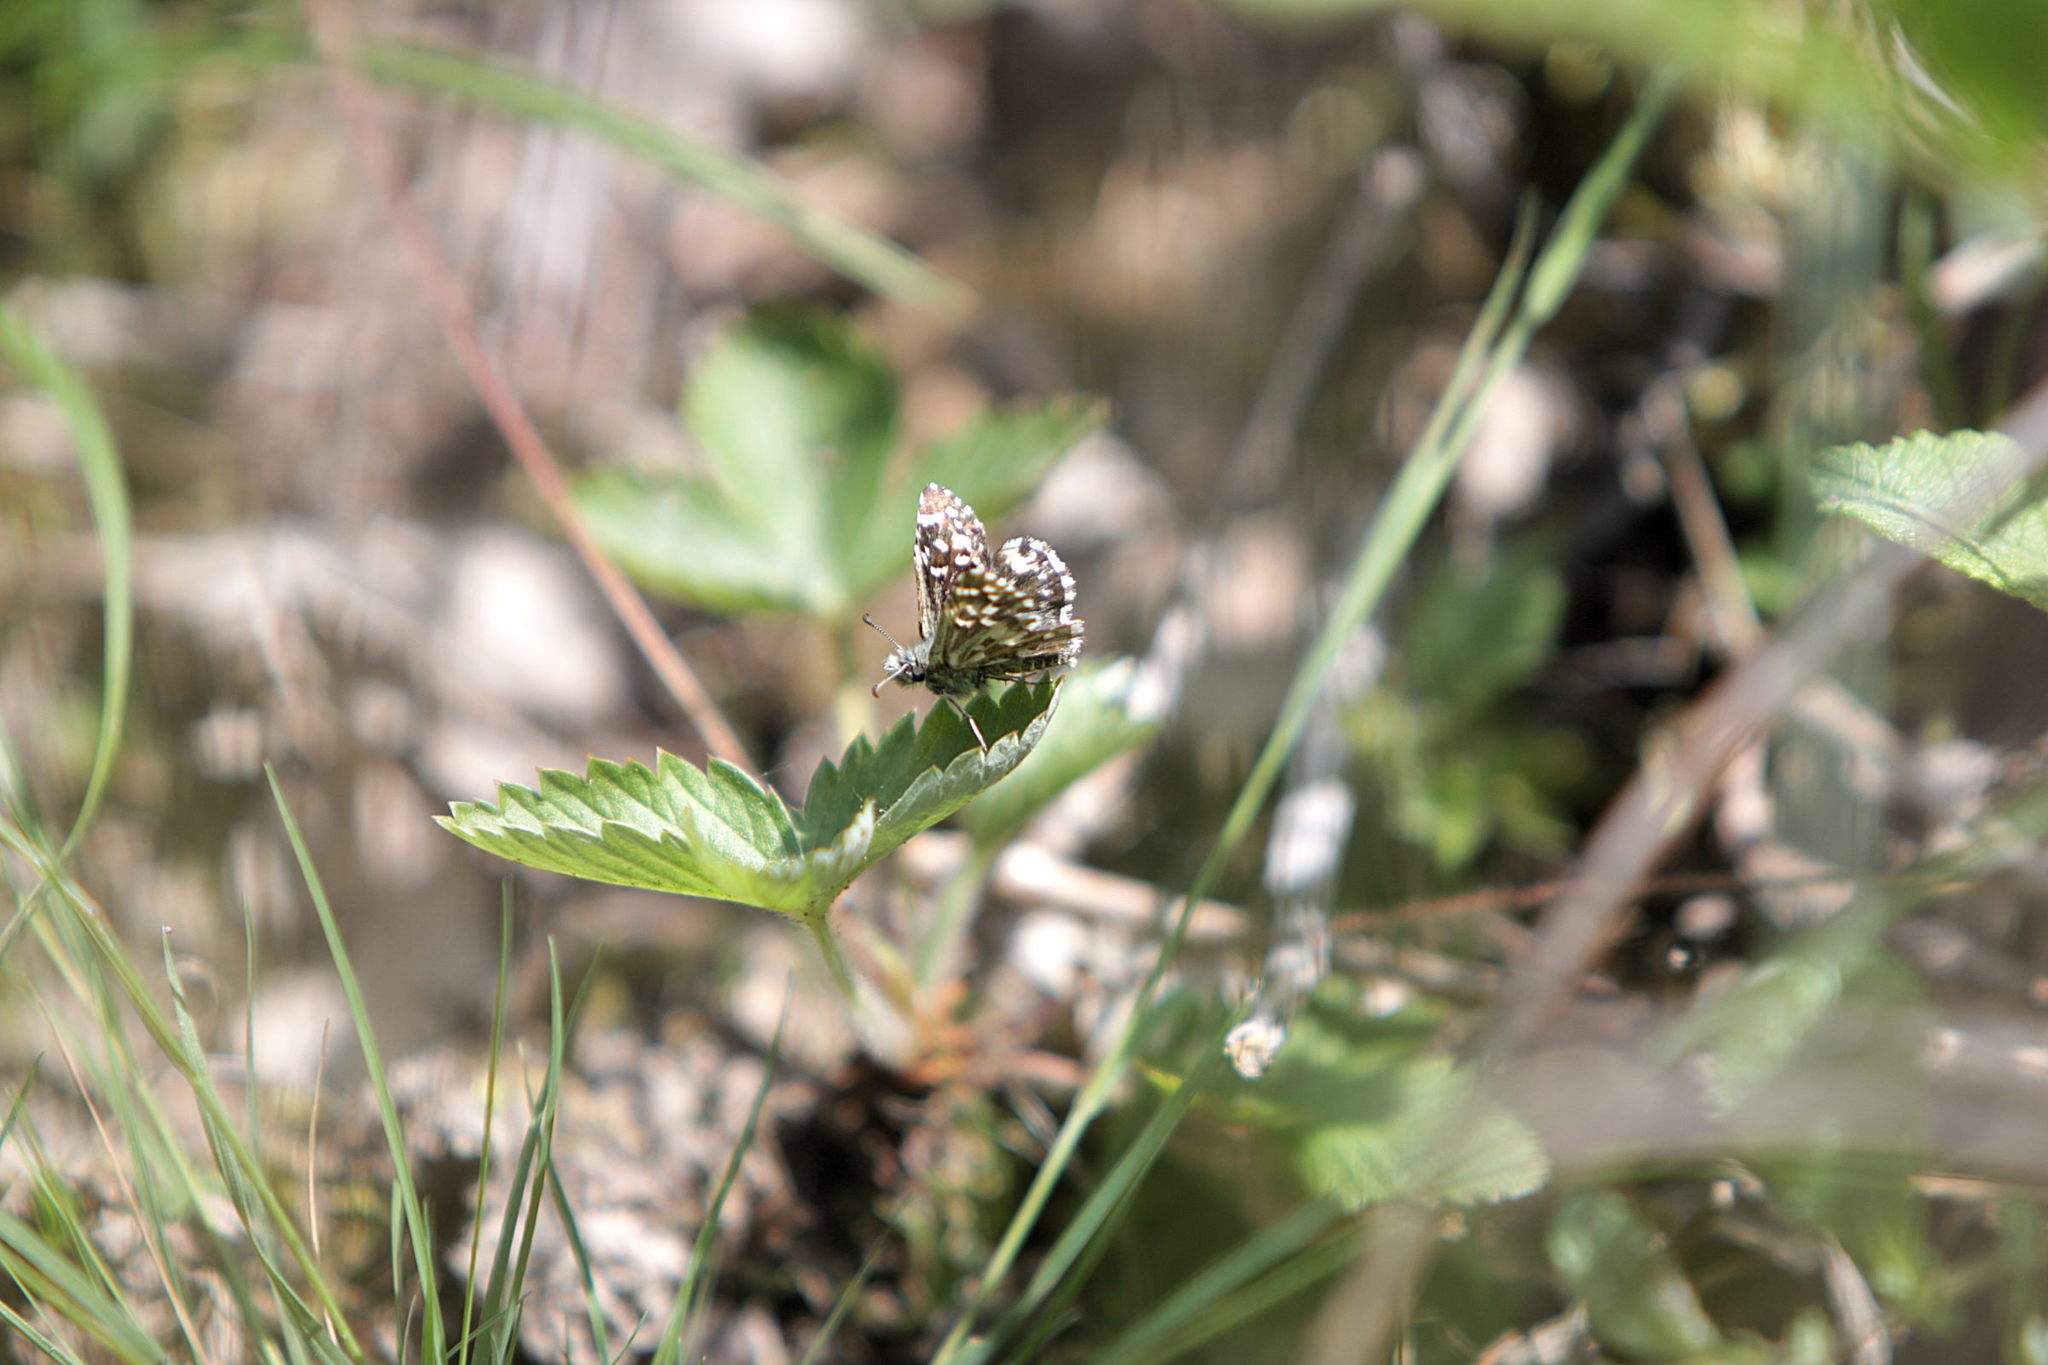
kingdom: Animalia
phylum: Arthropoda
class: Insecta
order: Lepidoptera
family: Hesperiidae
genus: Pyrgus
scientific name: Pyrgus malvae
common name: Grizzled skipper
